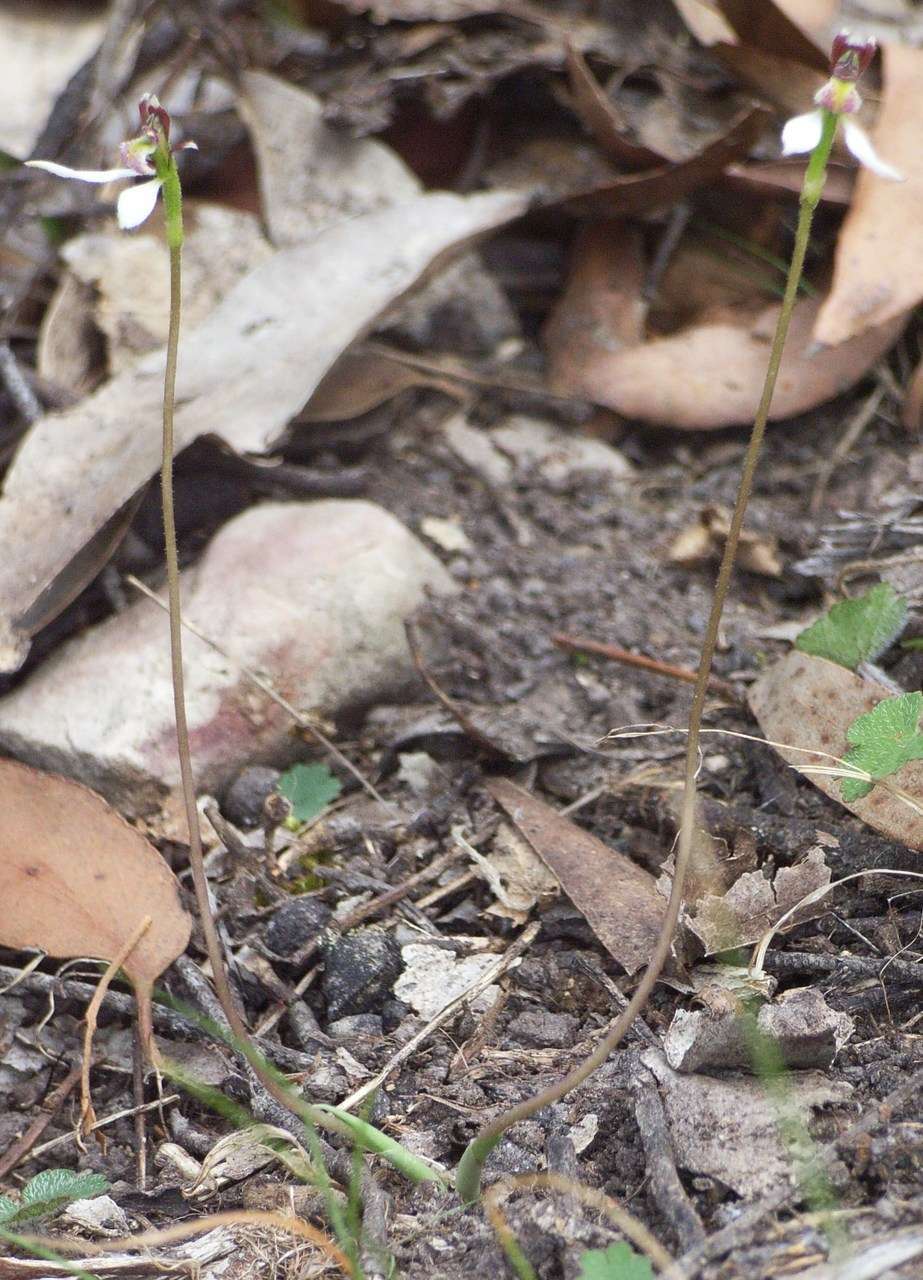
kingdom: Plantae
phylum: Tracheophyta
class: Liliopsida
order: Asparagales
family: Orchidaceae
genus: Eriochilus
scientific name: Eriochilus cucullatus
